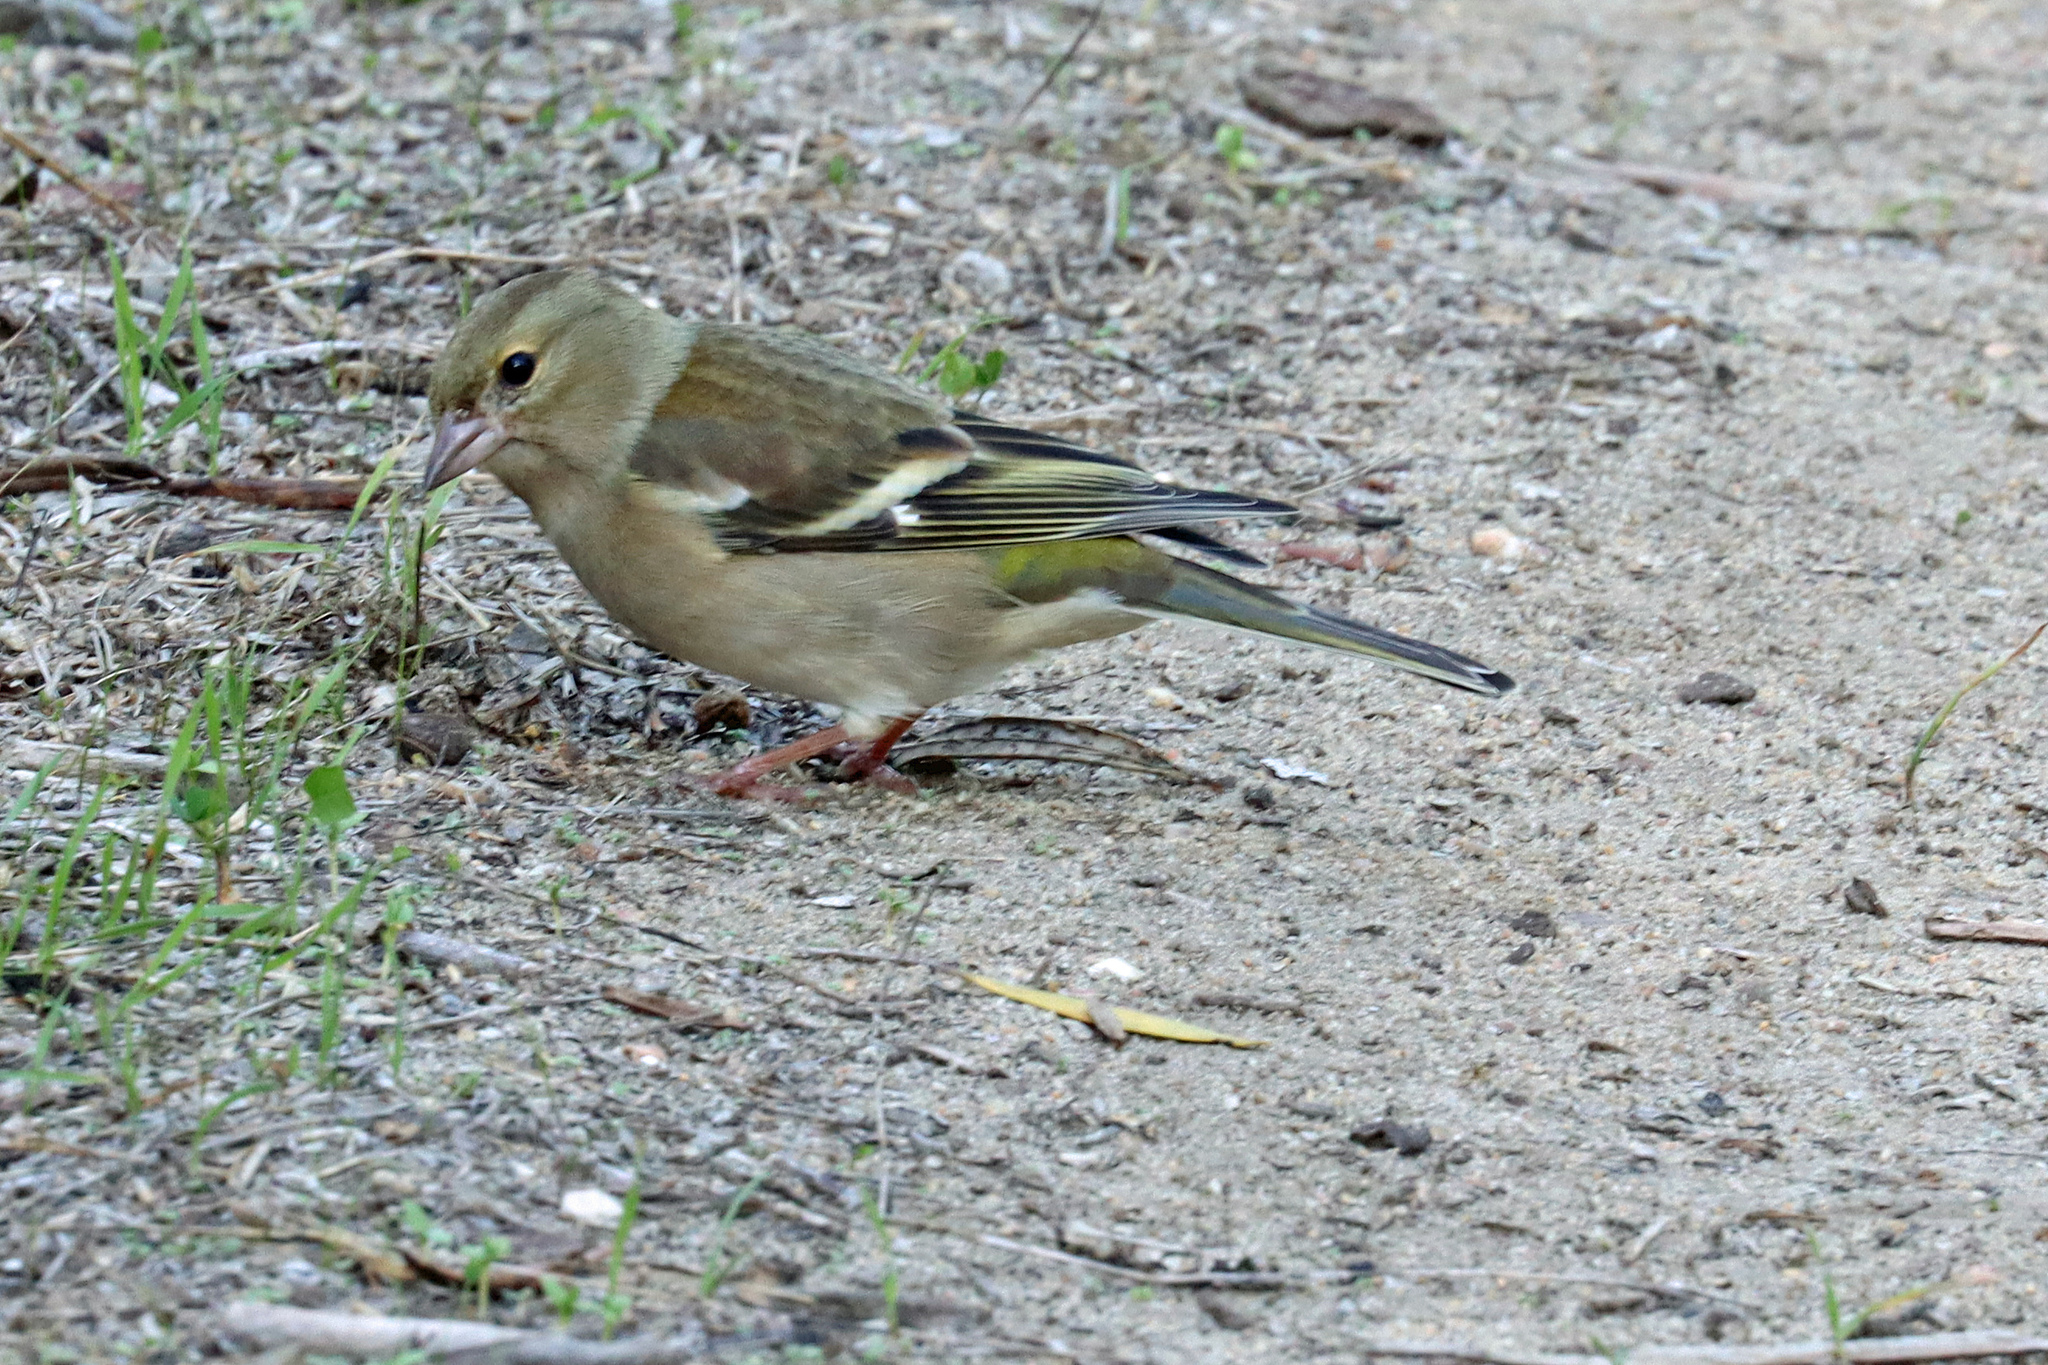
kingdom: Animalia
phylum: Chordata
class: Aves
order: Passeriformes
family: Fringillidae
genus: Fringilla
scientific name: Fringilla coelebs
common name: Common chaffinch
